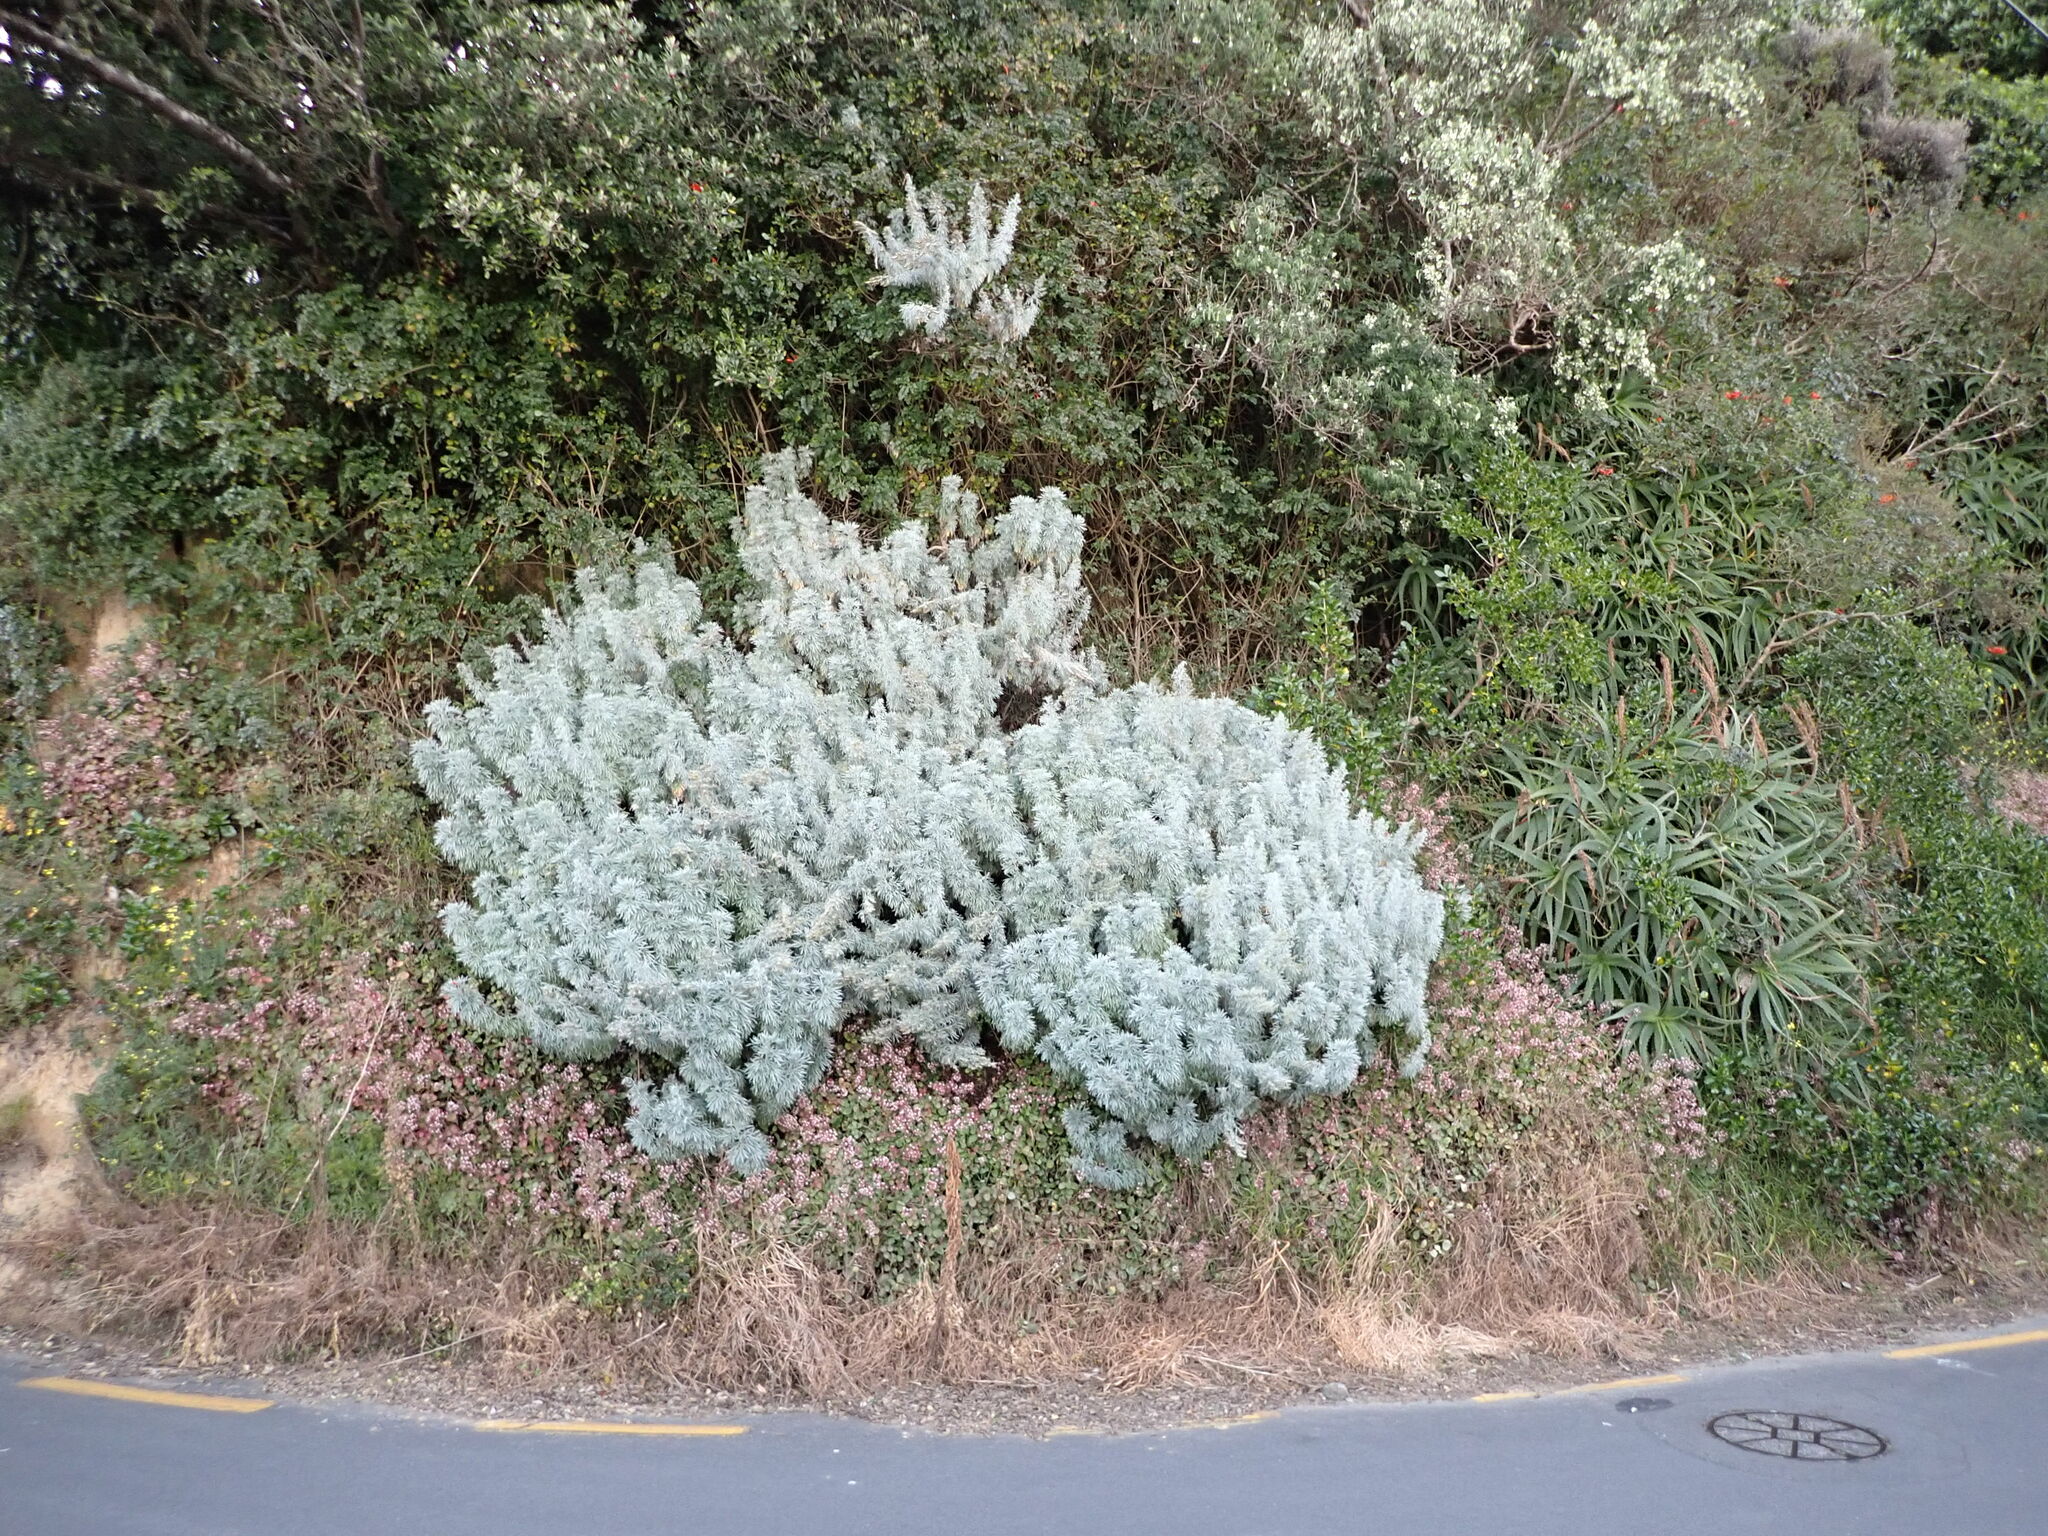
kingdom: Plantae
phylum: Tracheophyta
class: Magnoliopsida
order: Asterales
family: Asteraceae
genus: Artemisia
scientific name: Artemisia arborescens
